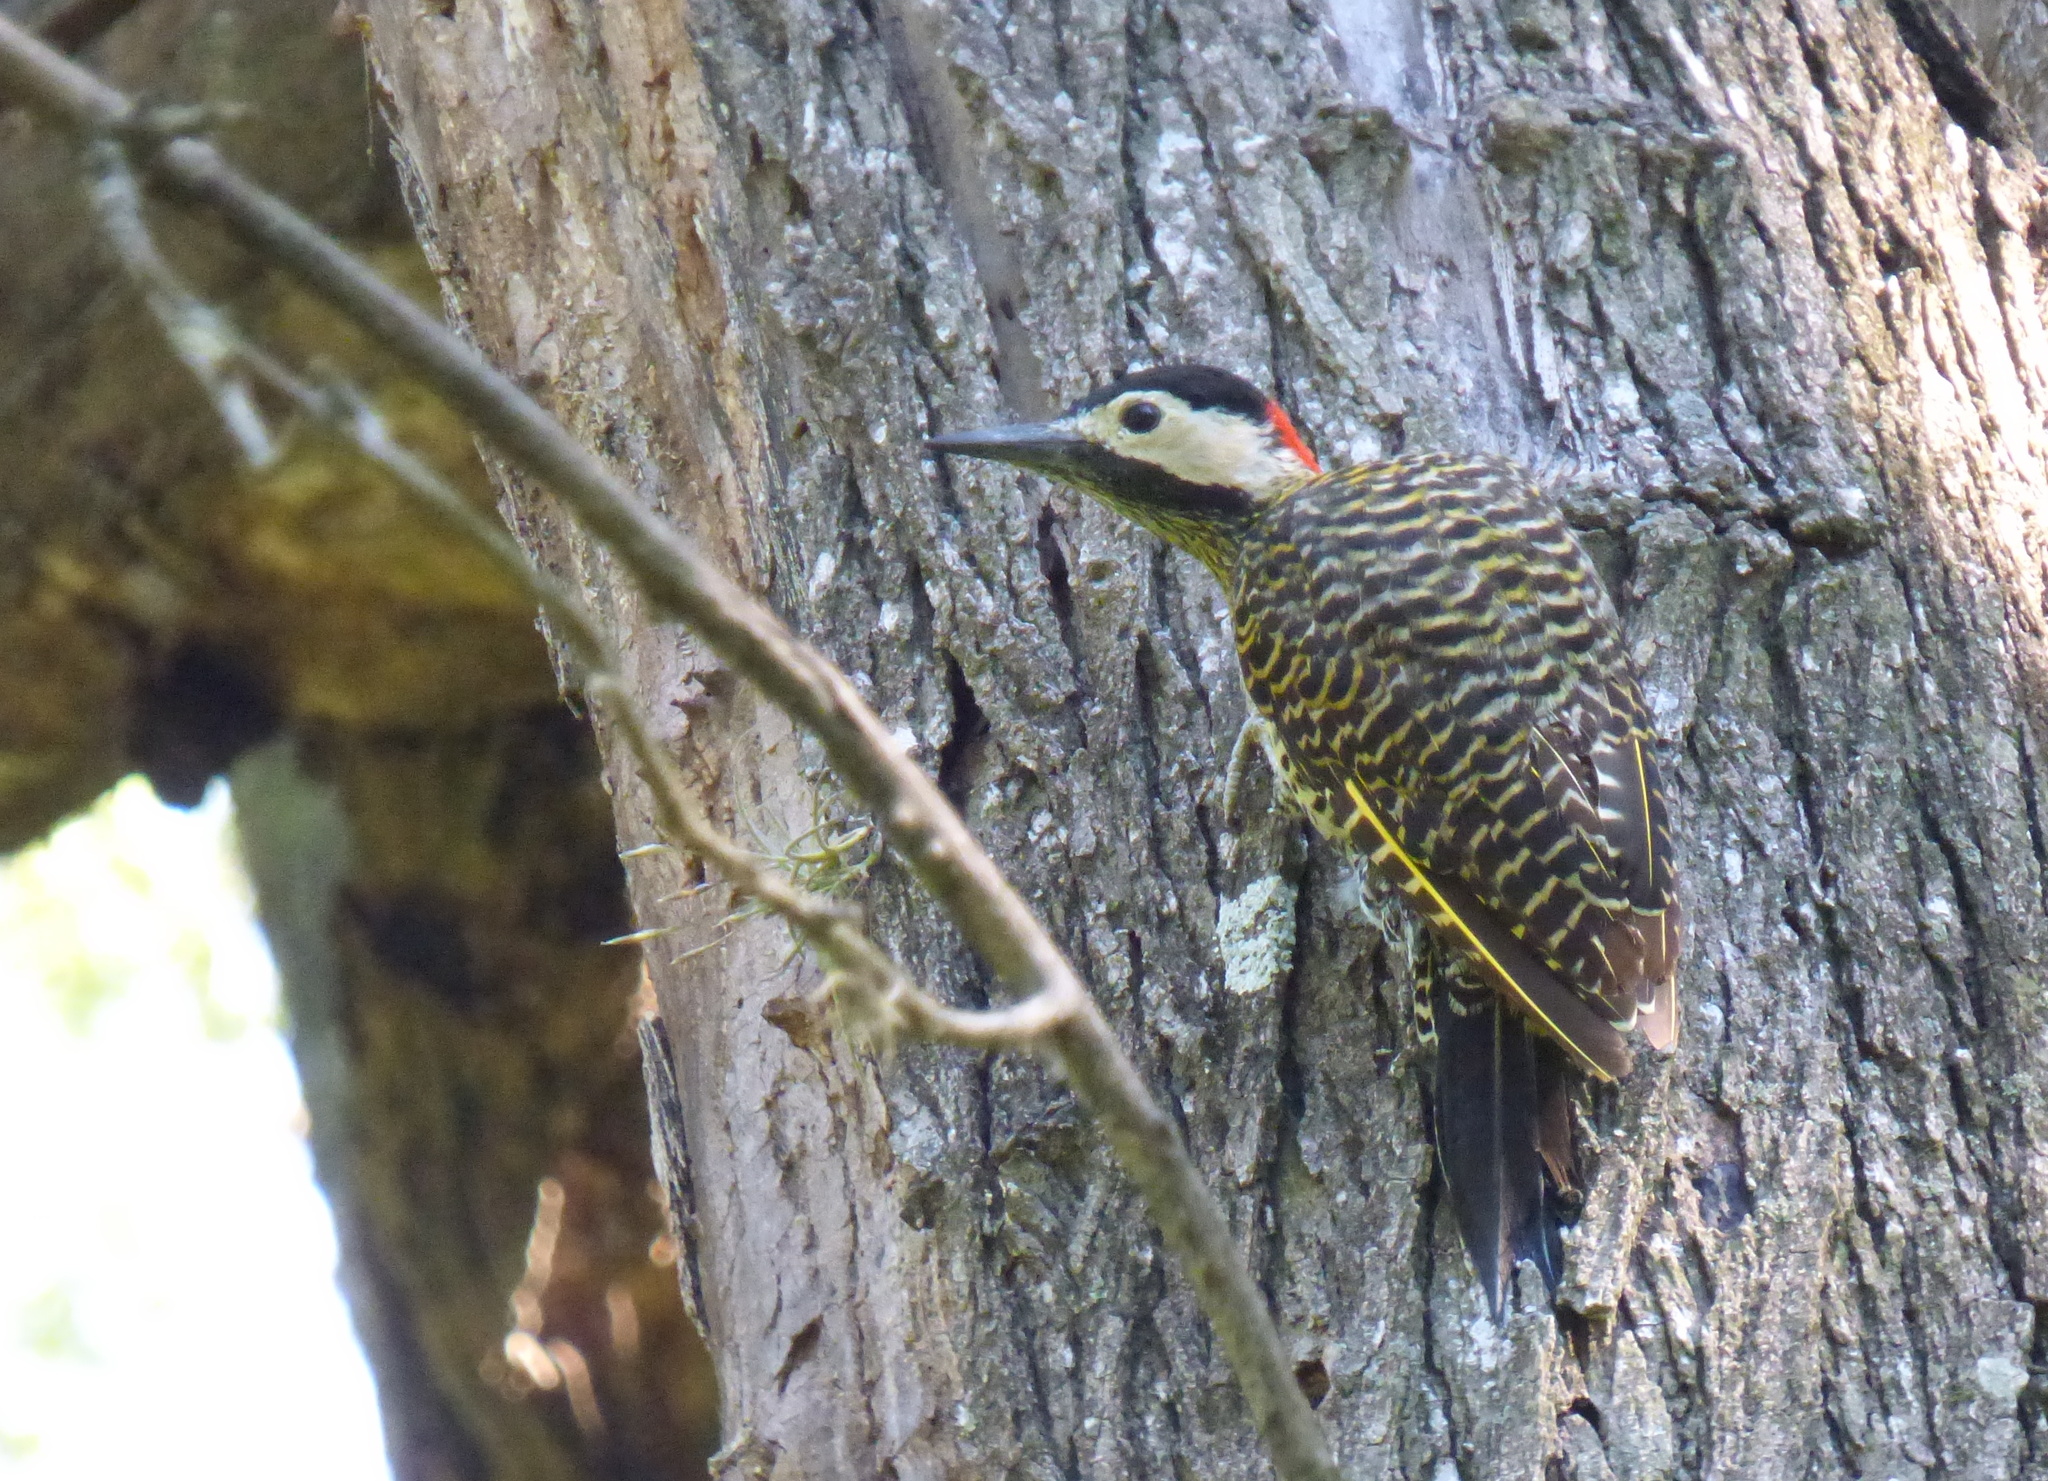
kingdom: Animalia
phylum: Chordata
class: Aves
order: Piciformes
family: Picidae
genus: Colaptes
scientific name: Colaptes melanochloros
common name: Green-barred woodpecker
